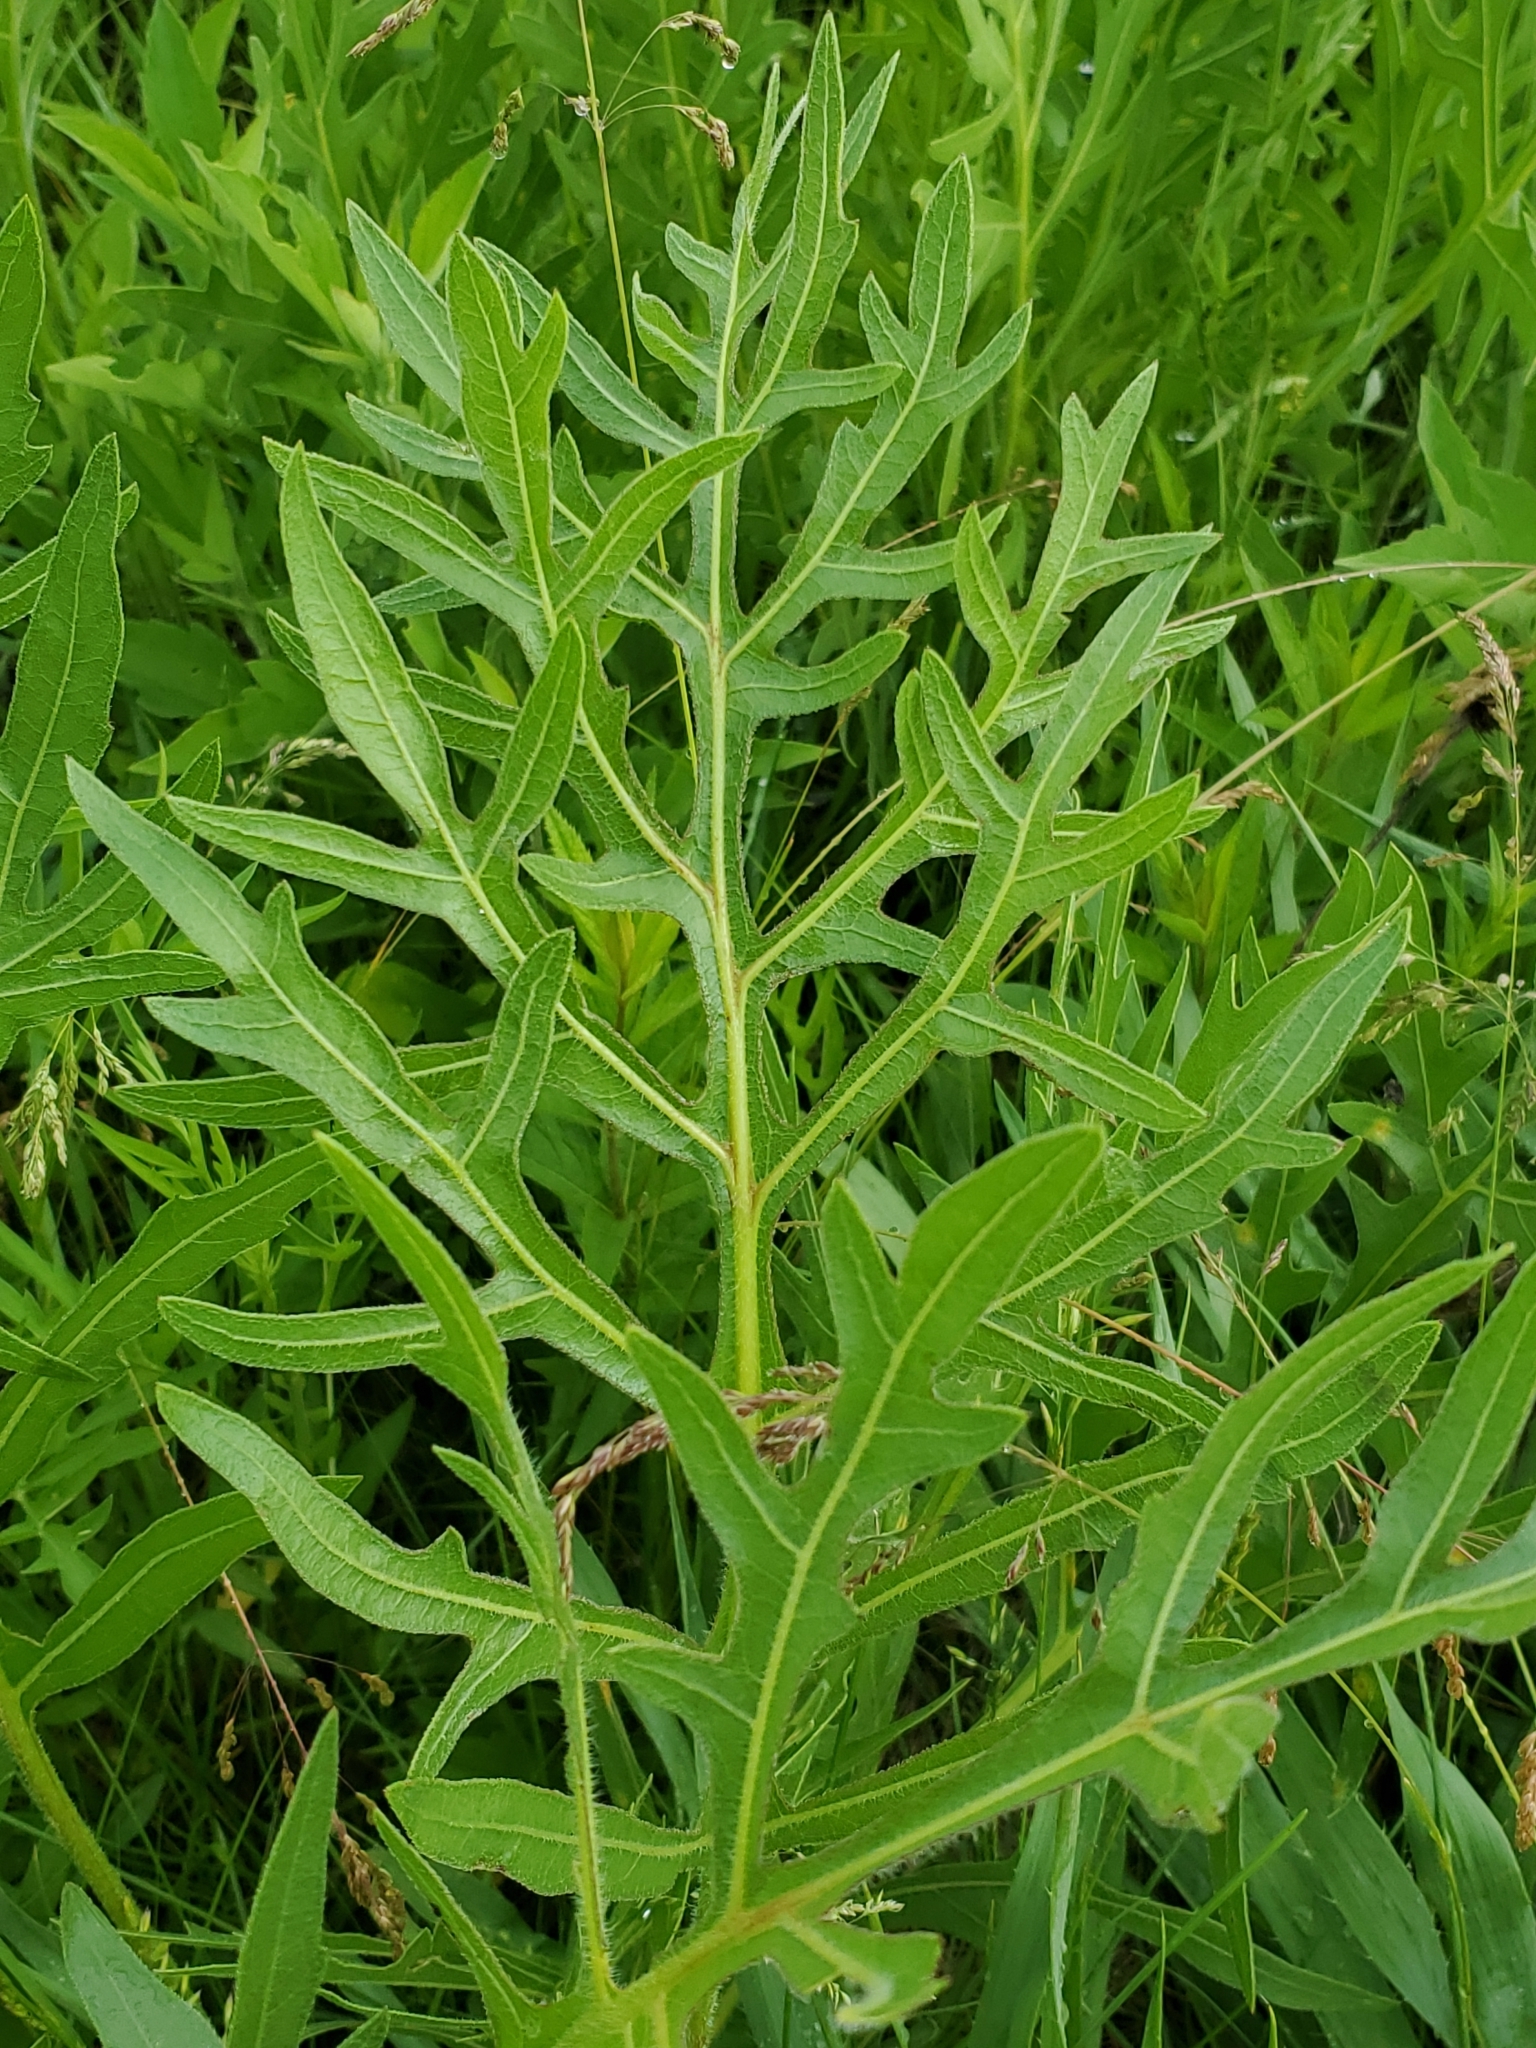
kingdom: Plantae
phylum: Tracheophyta
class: Magnoliopsida
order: Asterales
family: Asteraceae
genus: Silphium
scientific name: Silphium laciniatum
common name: Polarplant
